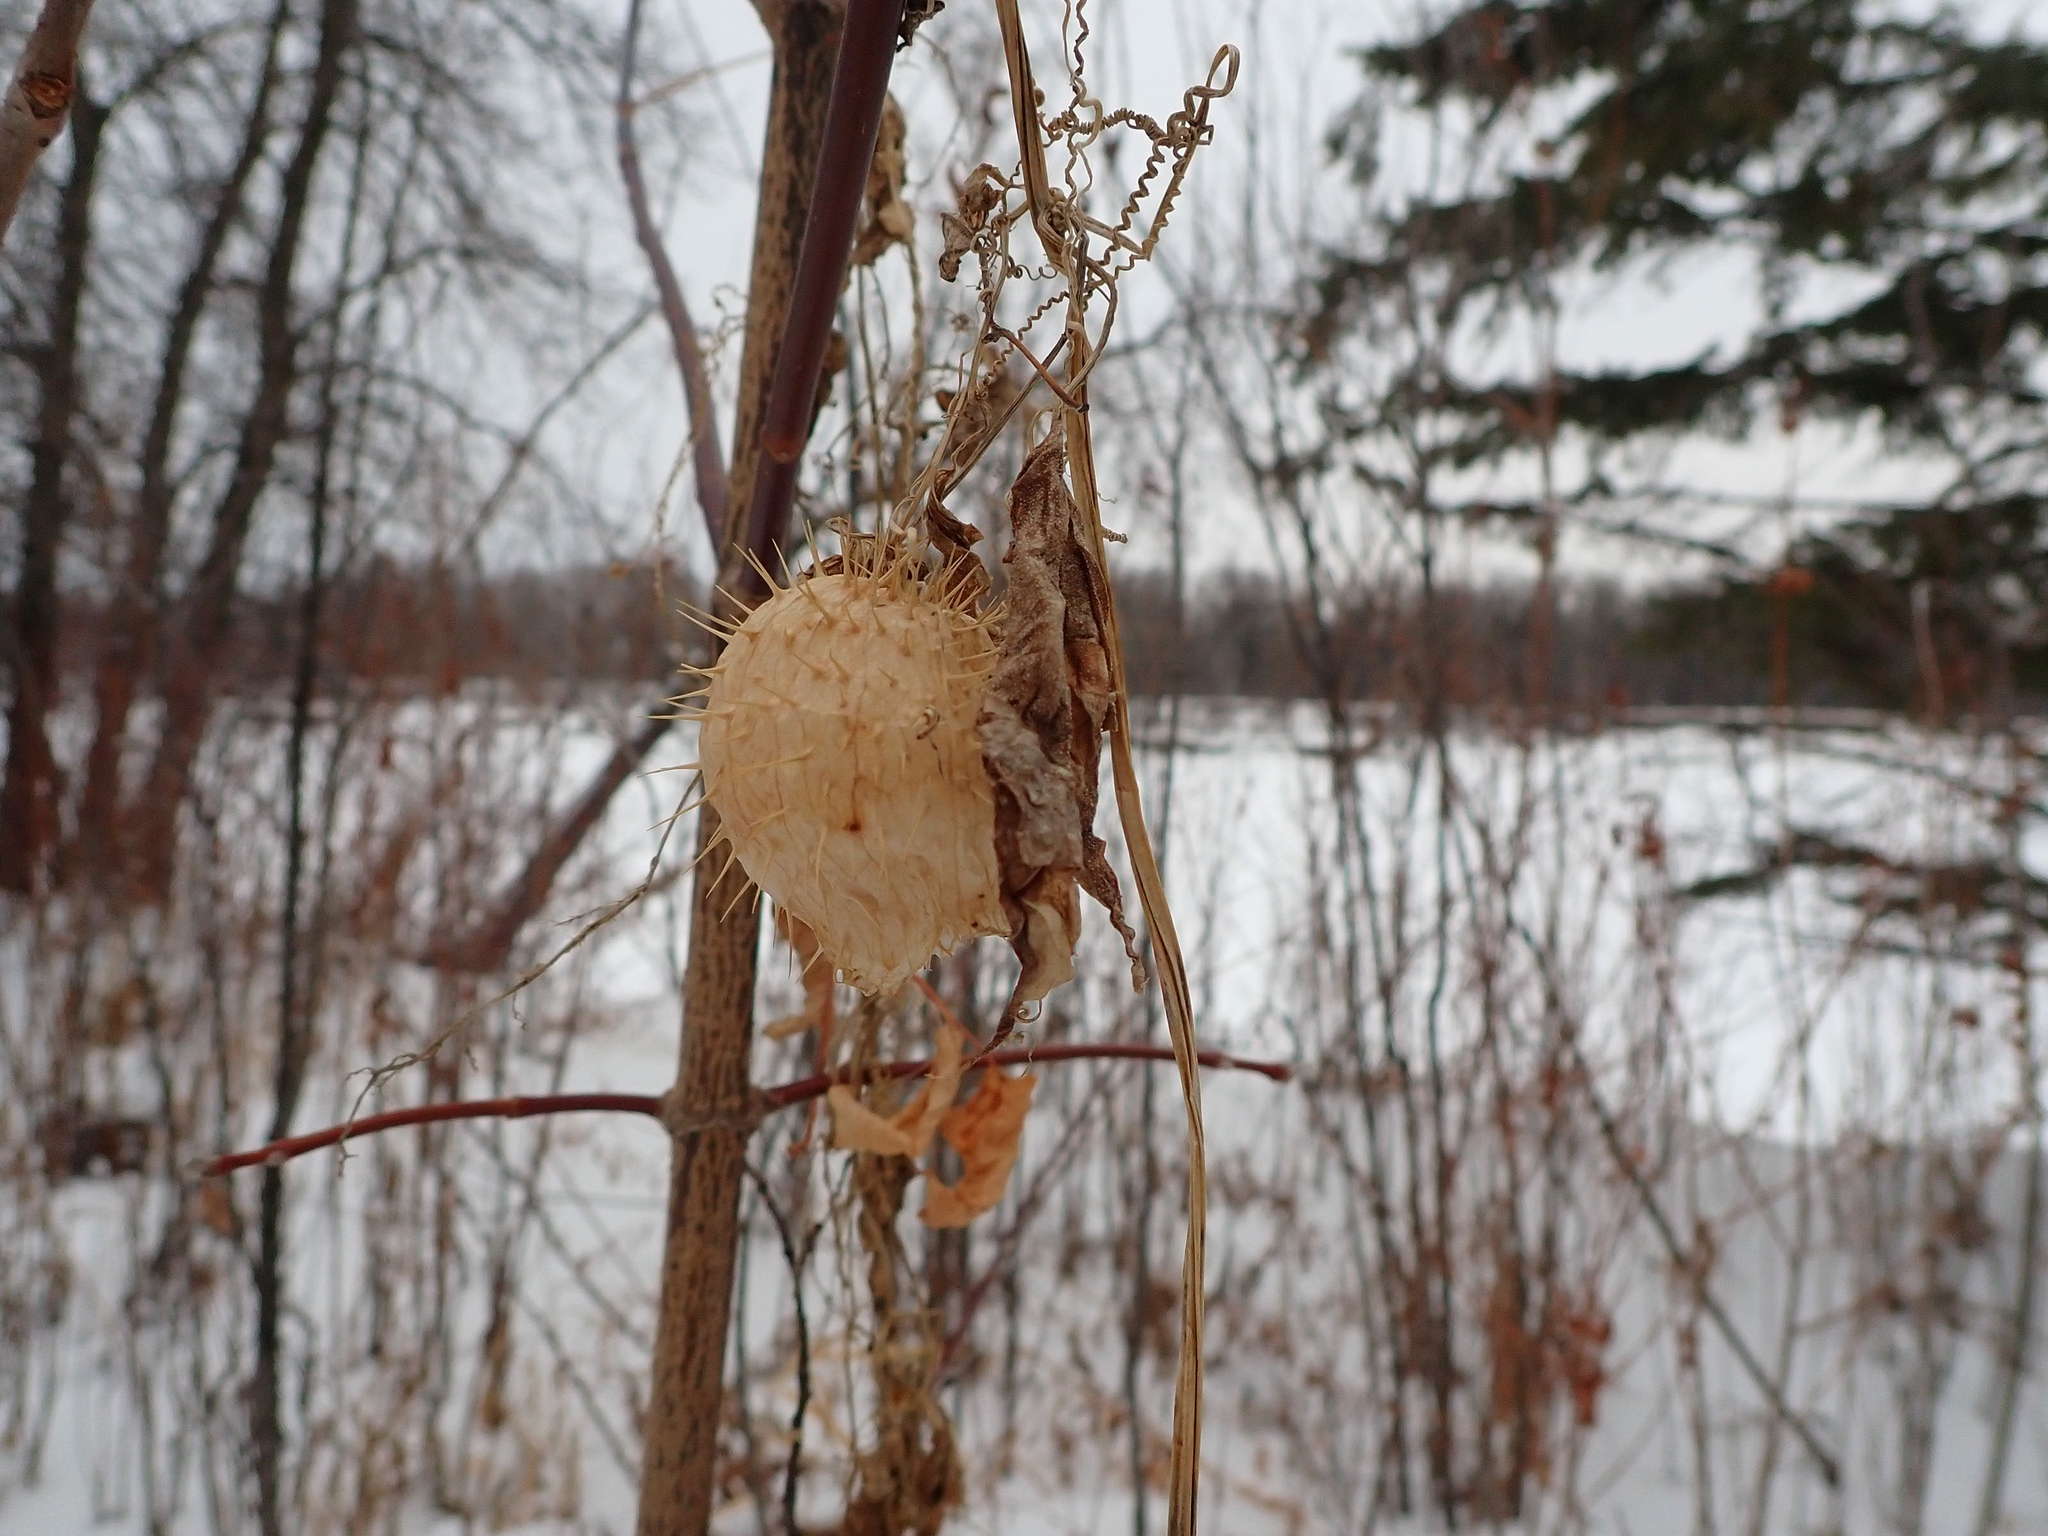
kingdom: Plantae
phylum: Tracheophyta
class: Magnoliopsida
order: Cucurbitales
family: Cucurbitaceae
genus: Echinocystis
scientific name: Echinocystis lobata
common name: Wild cucumber
